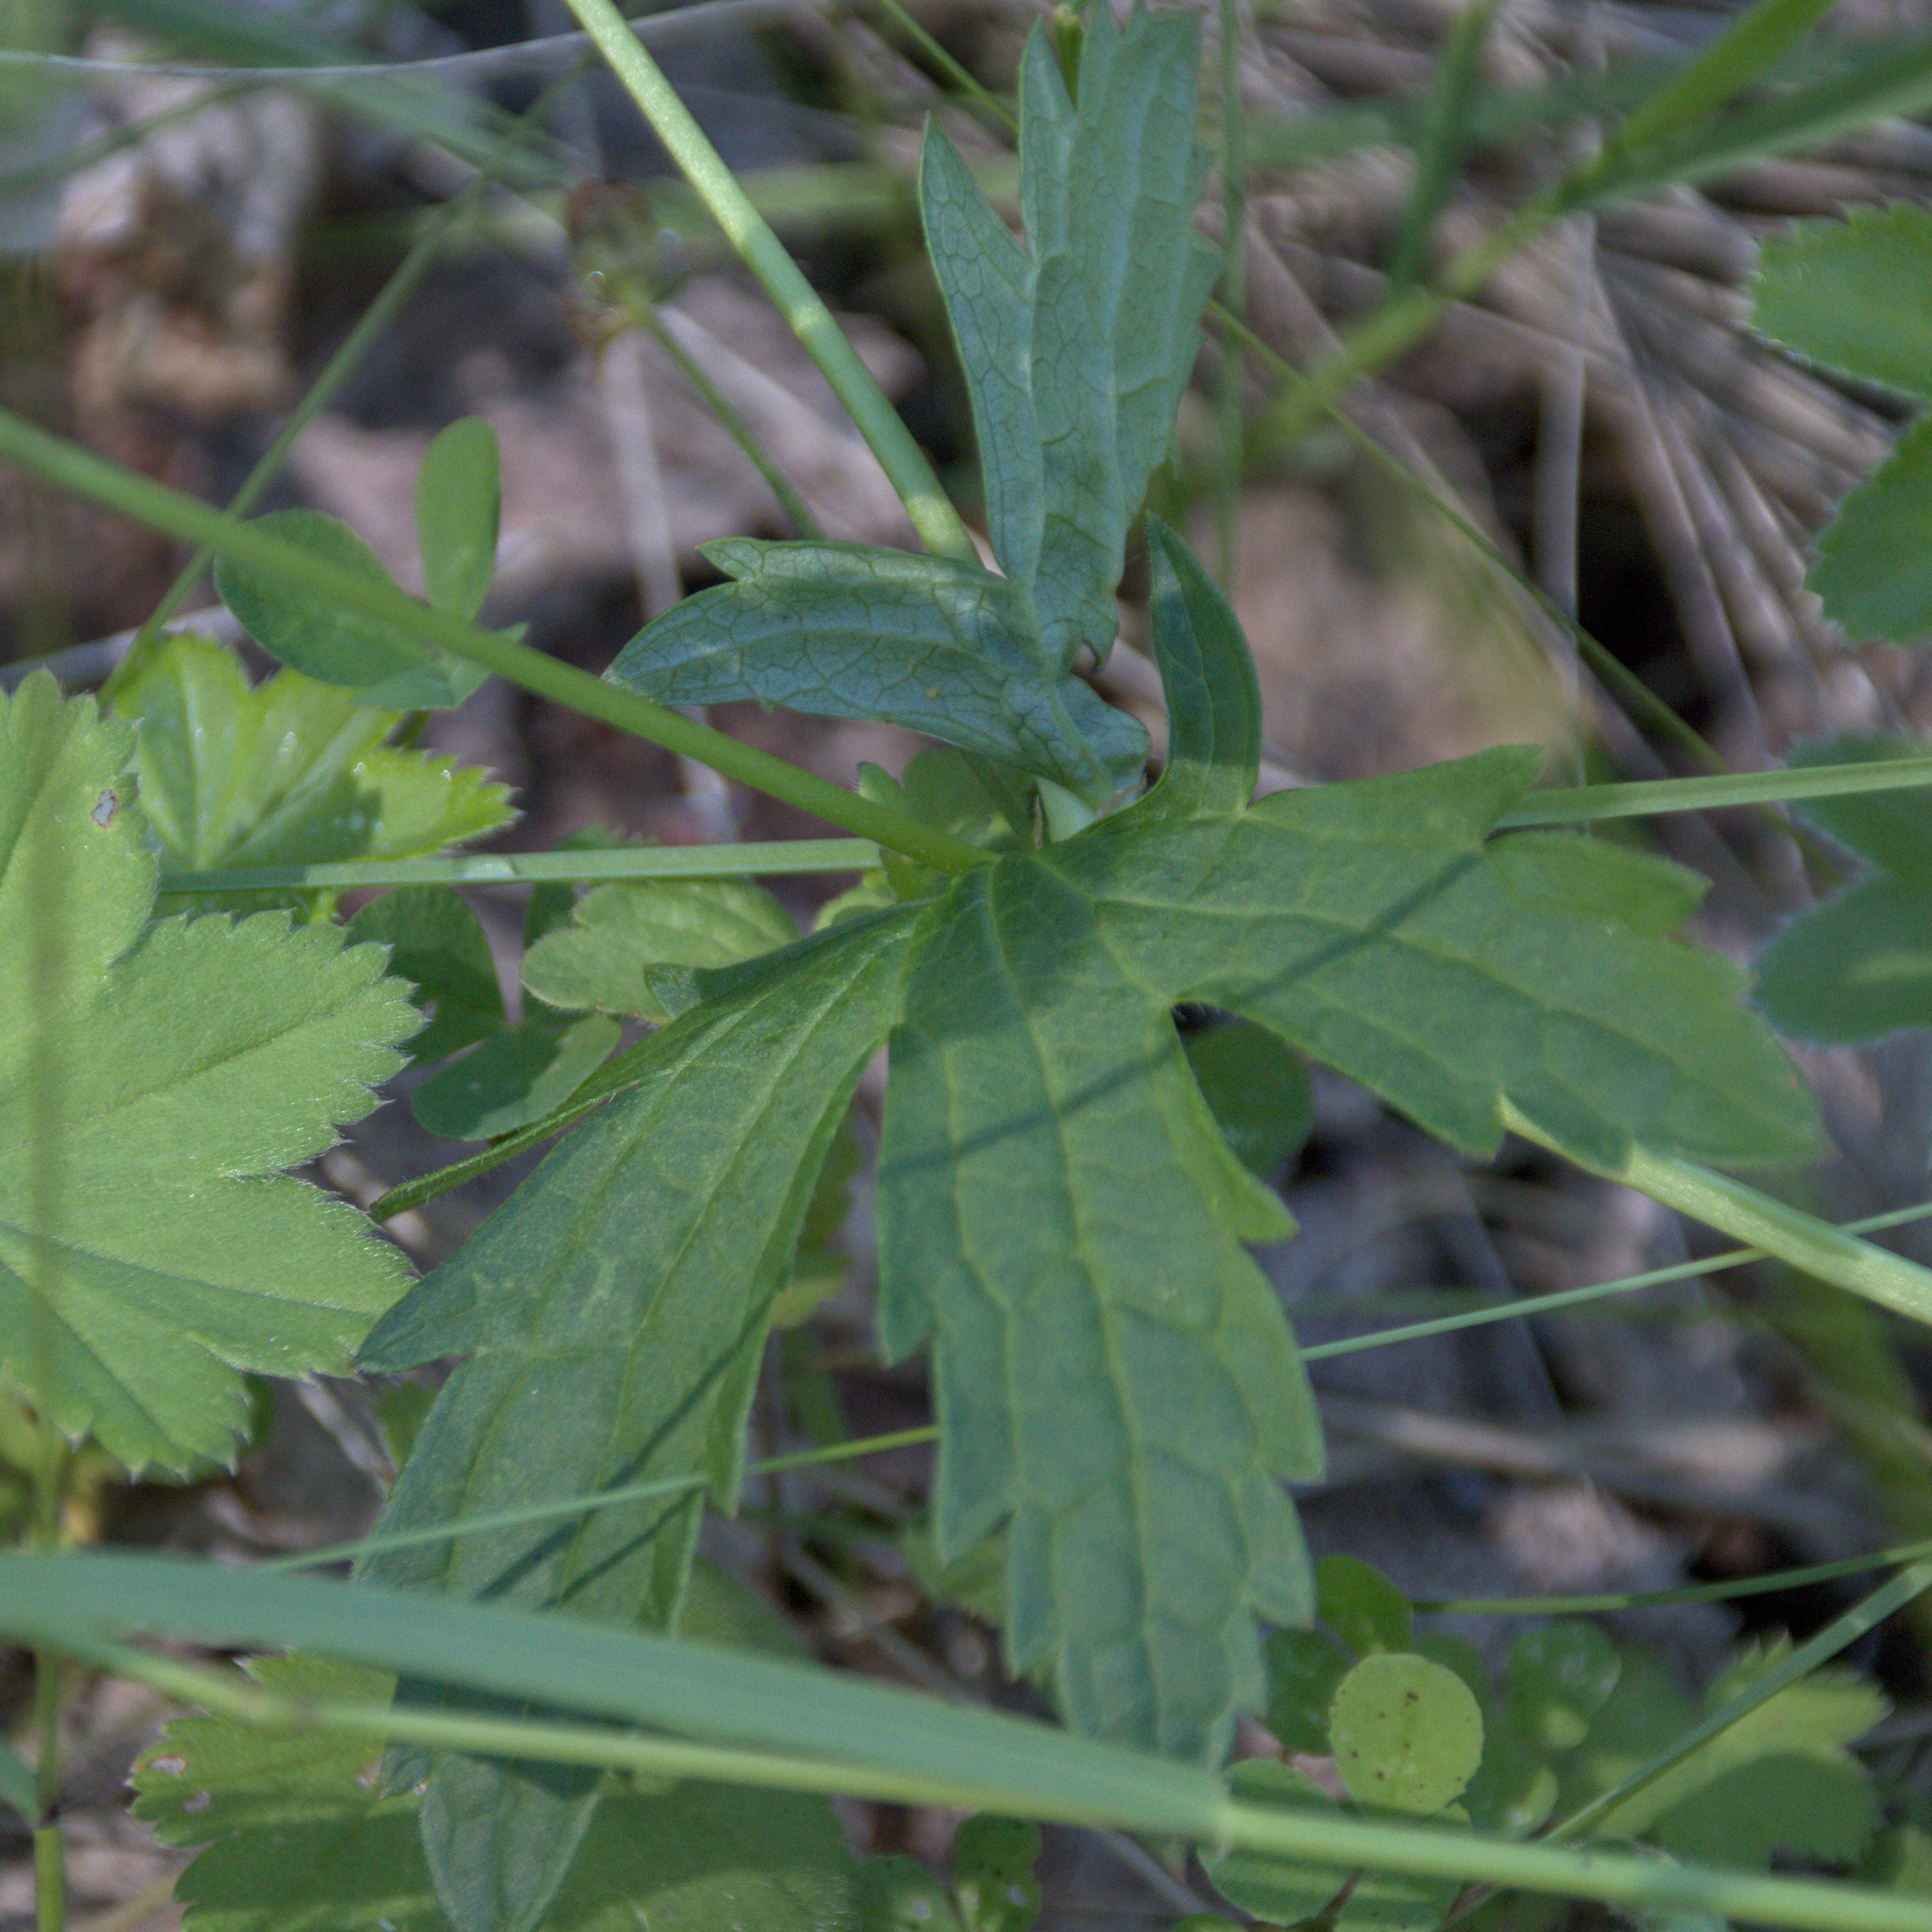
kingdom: Plantae
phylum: Tracheophyta
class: Magnoliopsida
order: Geraniales
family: Geraniaceae
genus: Geranium
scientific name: Geranium sylvaticum
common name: Wood crane's-bill
